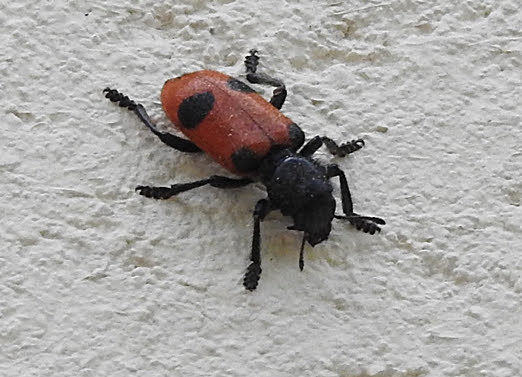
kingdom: Animalia
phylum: Arthropoda
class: Insecta
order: Coleoptera
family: Cleridae
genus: Enoclerus
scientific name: Enoclerus
